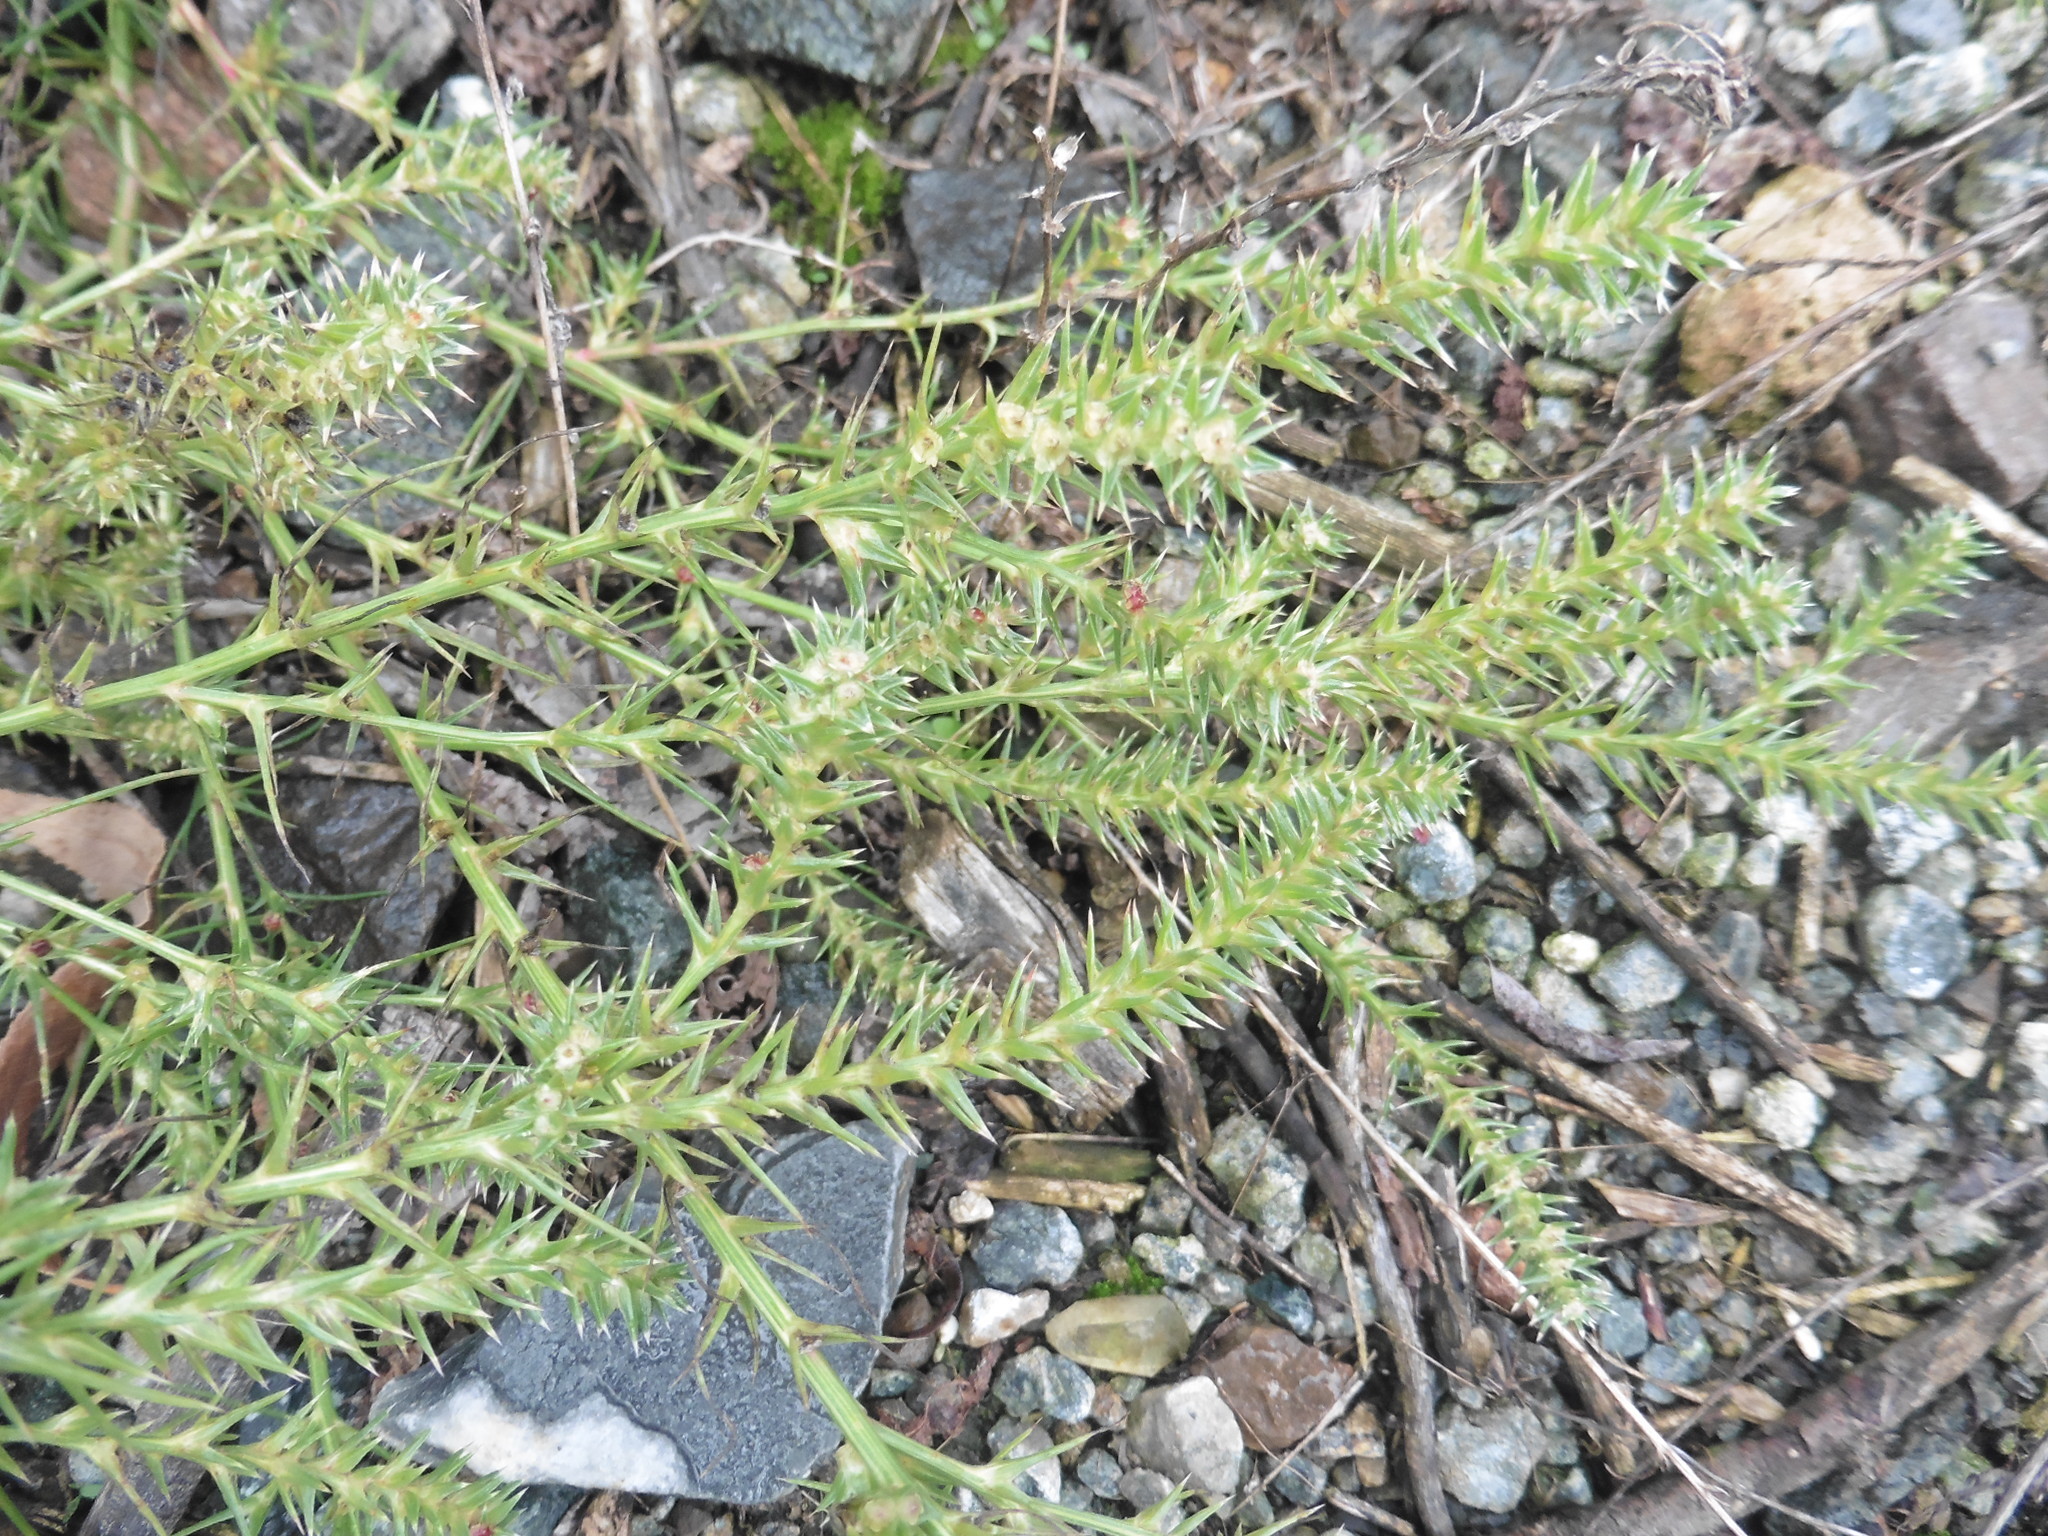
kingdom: Plantae
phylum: Tracheophyta
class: Magnoliopsida
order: Caryophyllales
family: Amaranthaceae
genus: Salsola
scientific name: Salsola tragus
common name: Prickly russian thistle
